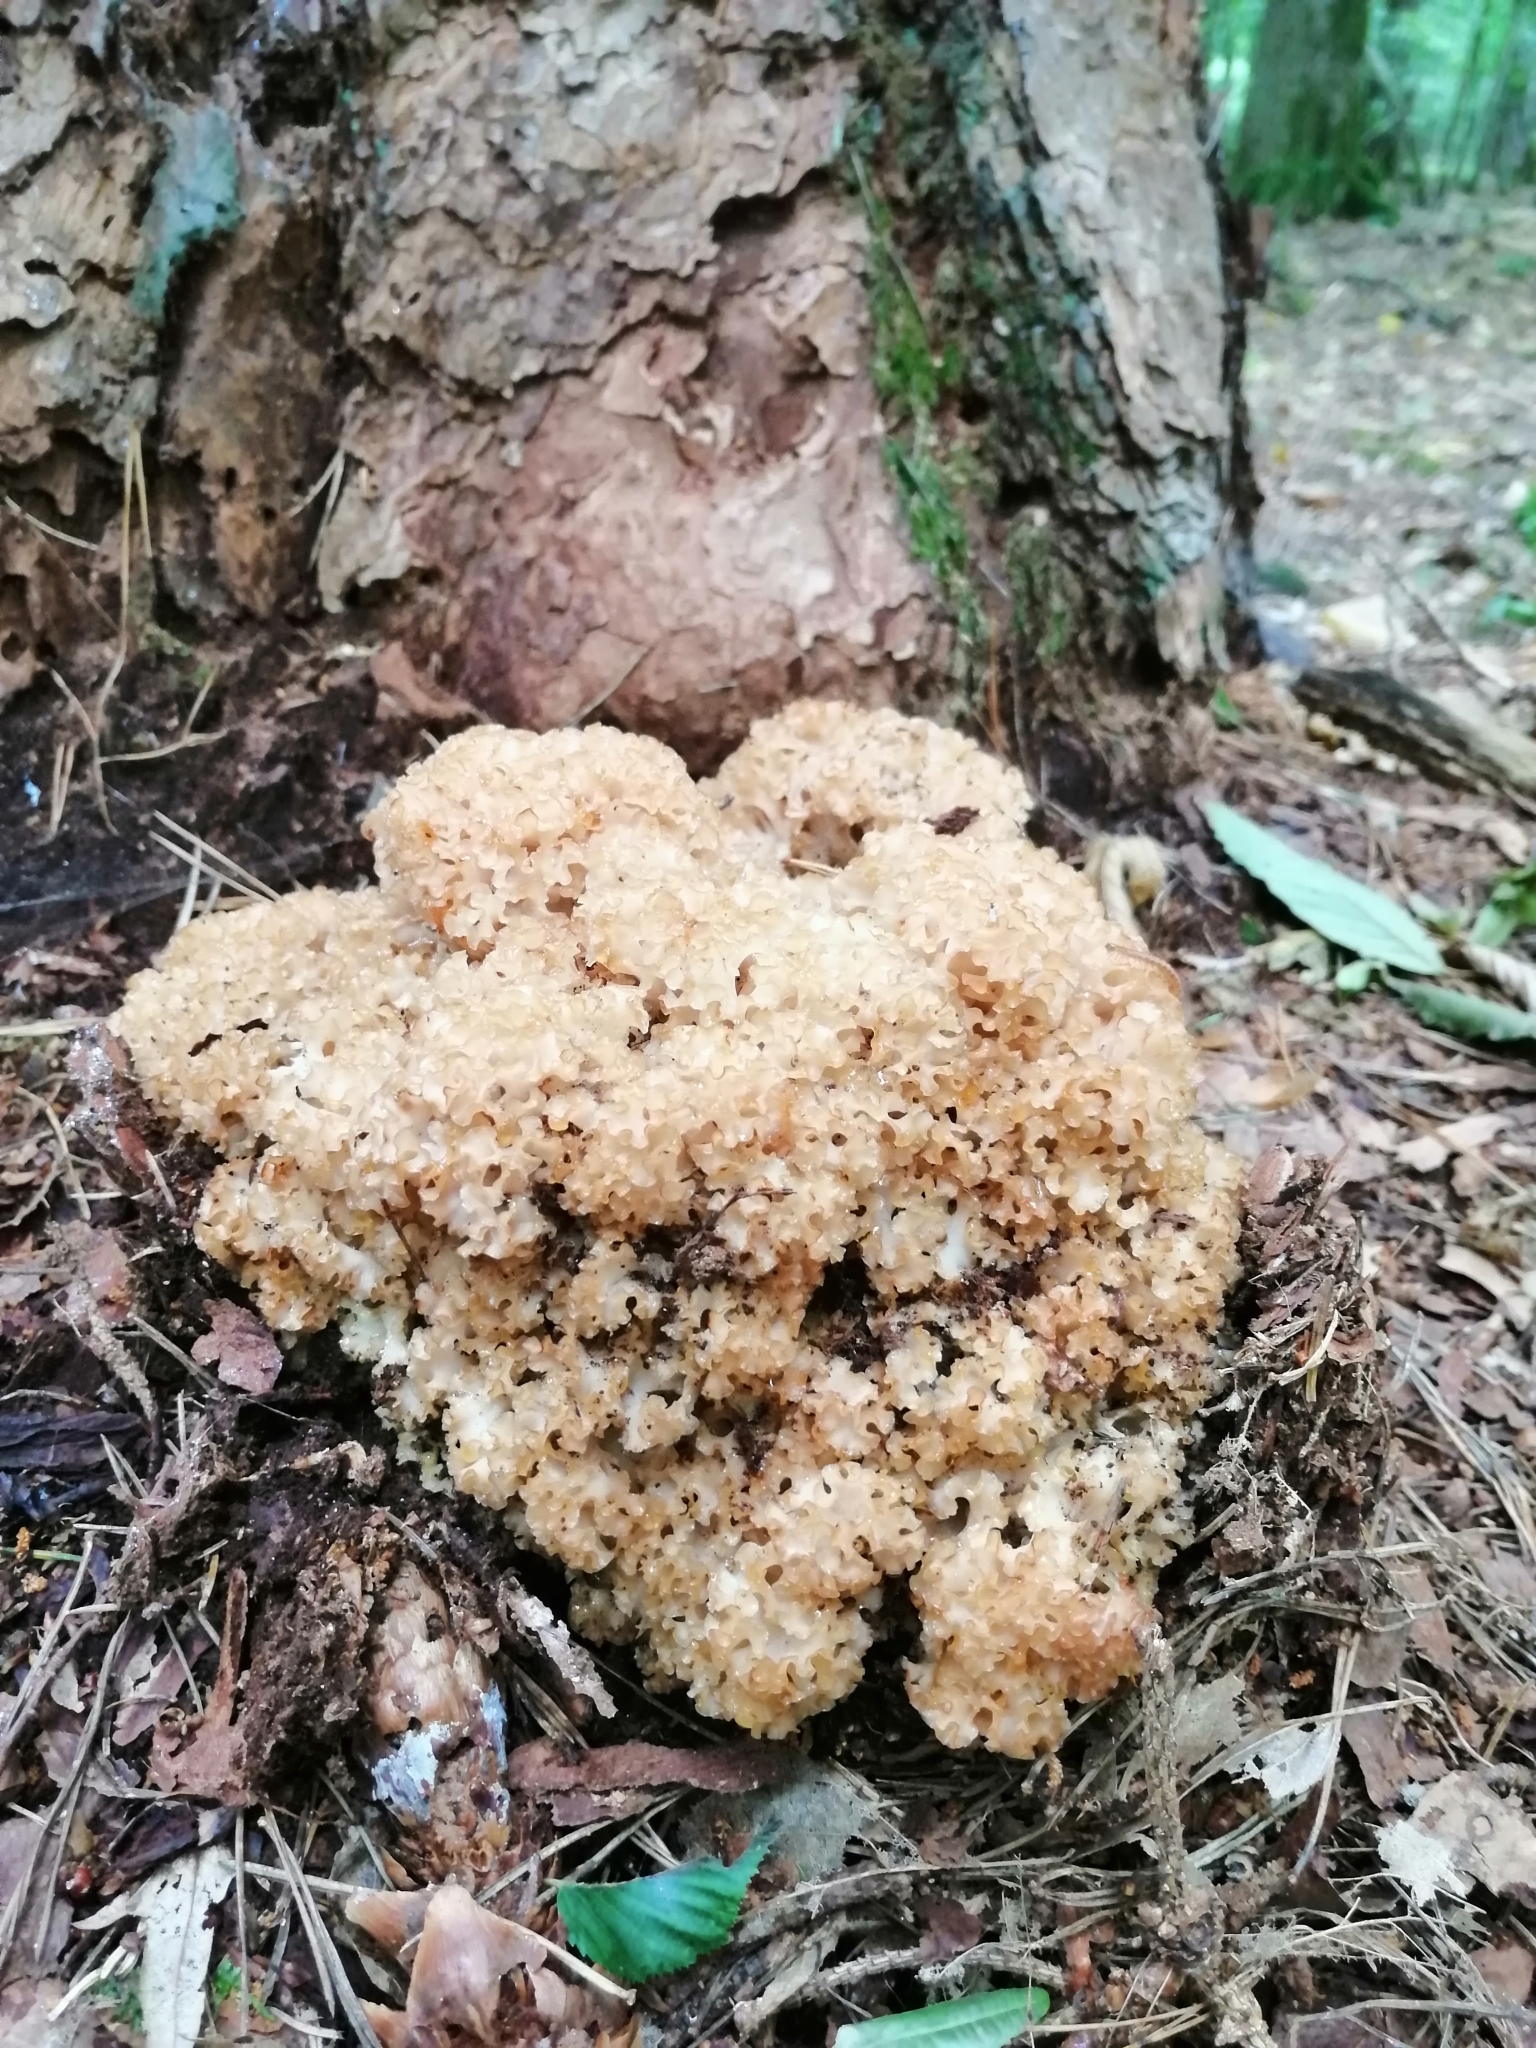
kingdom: Fungi
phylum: Basidiomycota
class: Agaricomycetes
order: Polyporales
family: Sparassidaceae
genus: Sparassis
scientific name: Sparassis crispa
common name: Brain fungus
